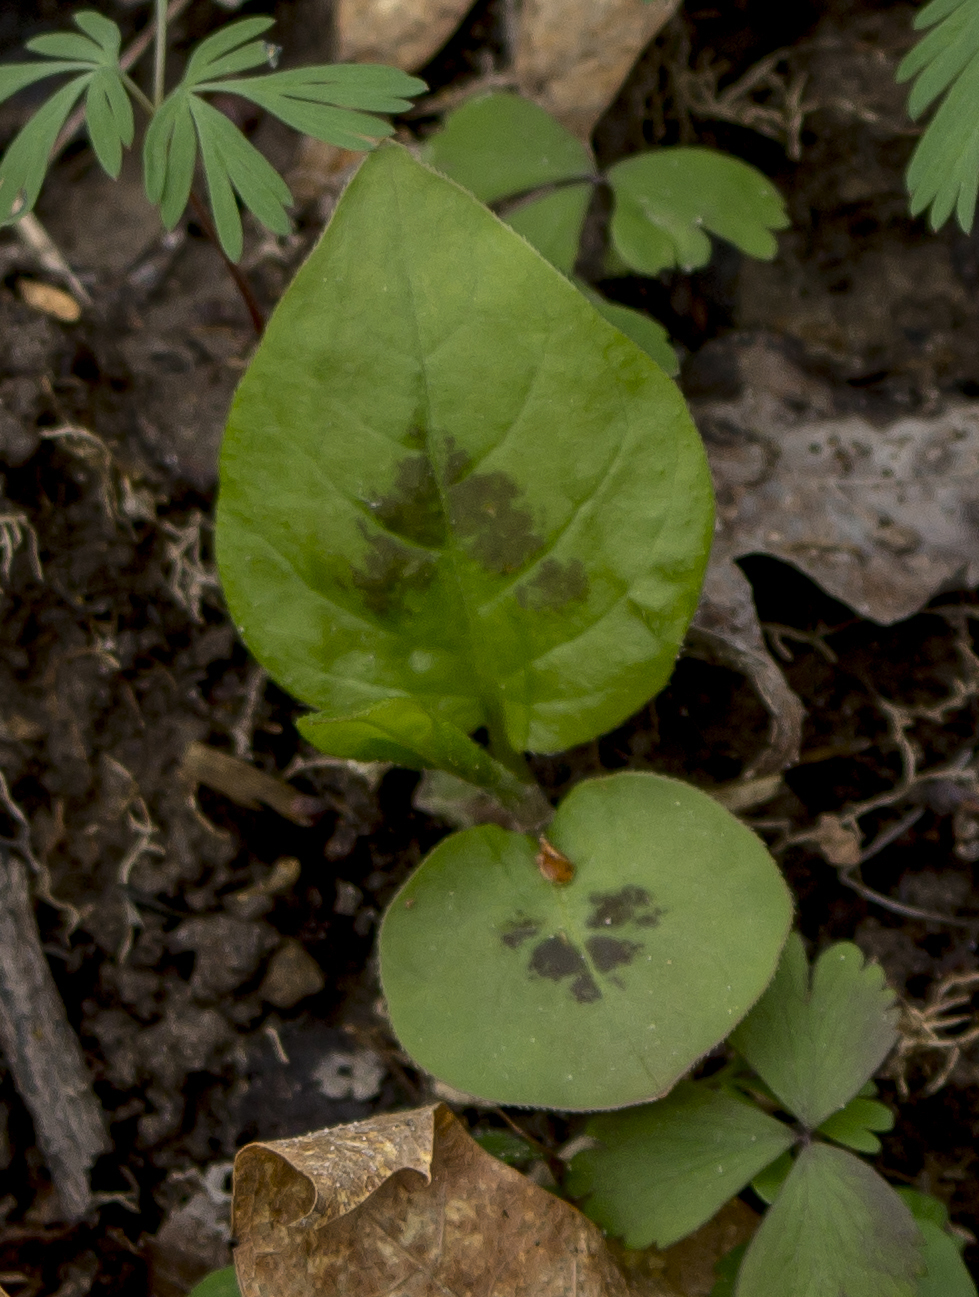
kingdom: Plantae
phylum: Tracheophyta
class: Magnoliopsida
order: Caryophyllales
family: Polygonaceae
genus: Persicaria
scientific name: Persicaria virginiana
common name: Jumpseed
